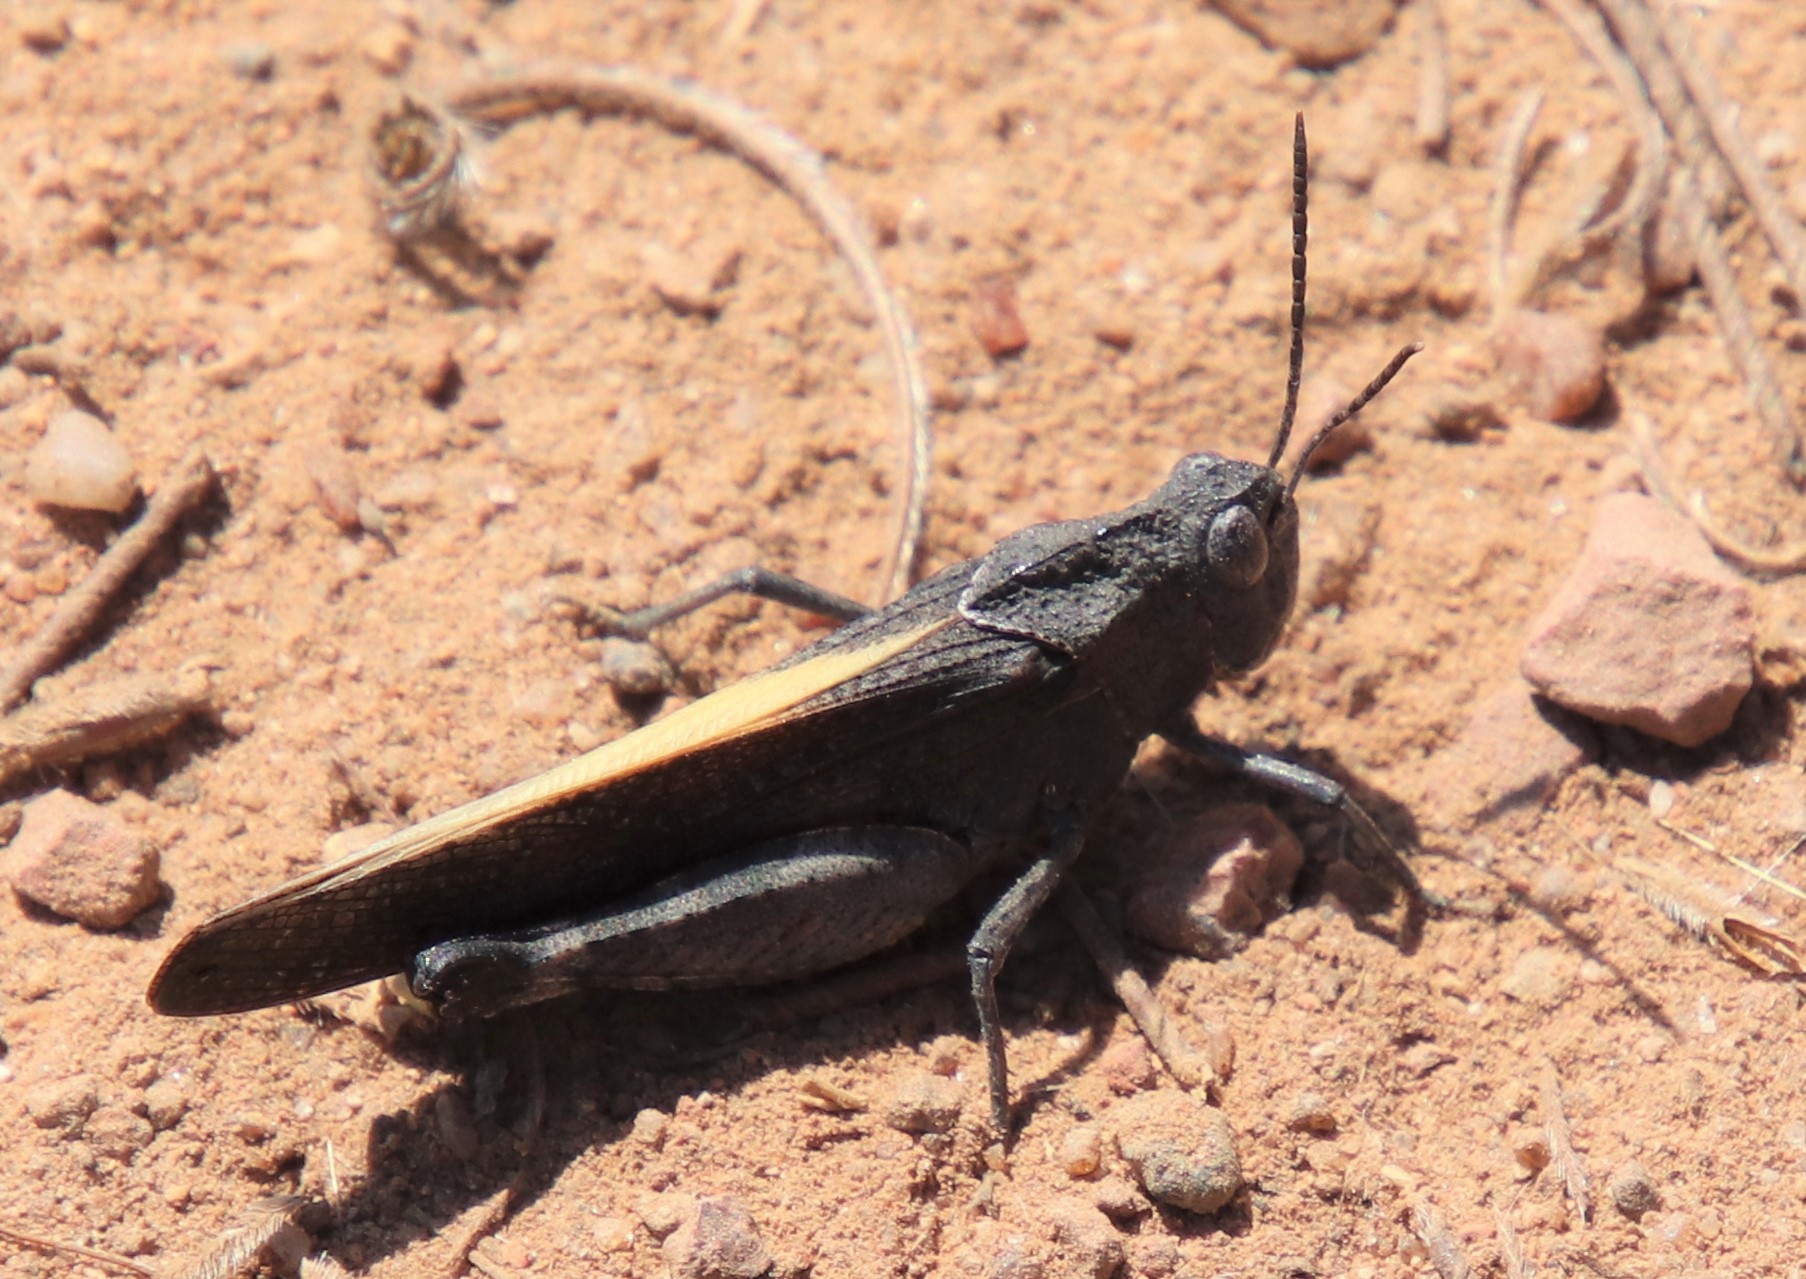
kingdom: Animalia
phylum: Arthropoda
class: Insecta
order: Orthoptera
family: Acrididae
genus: Arphia
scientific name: Arphia
